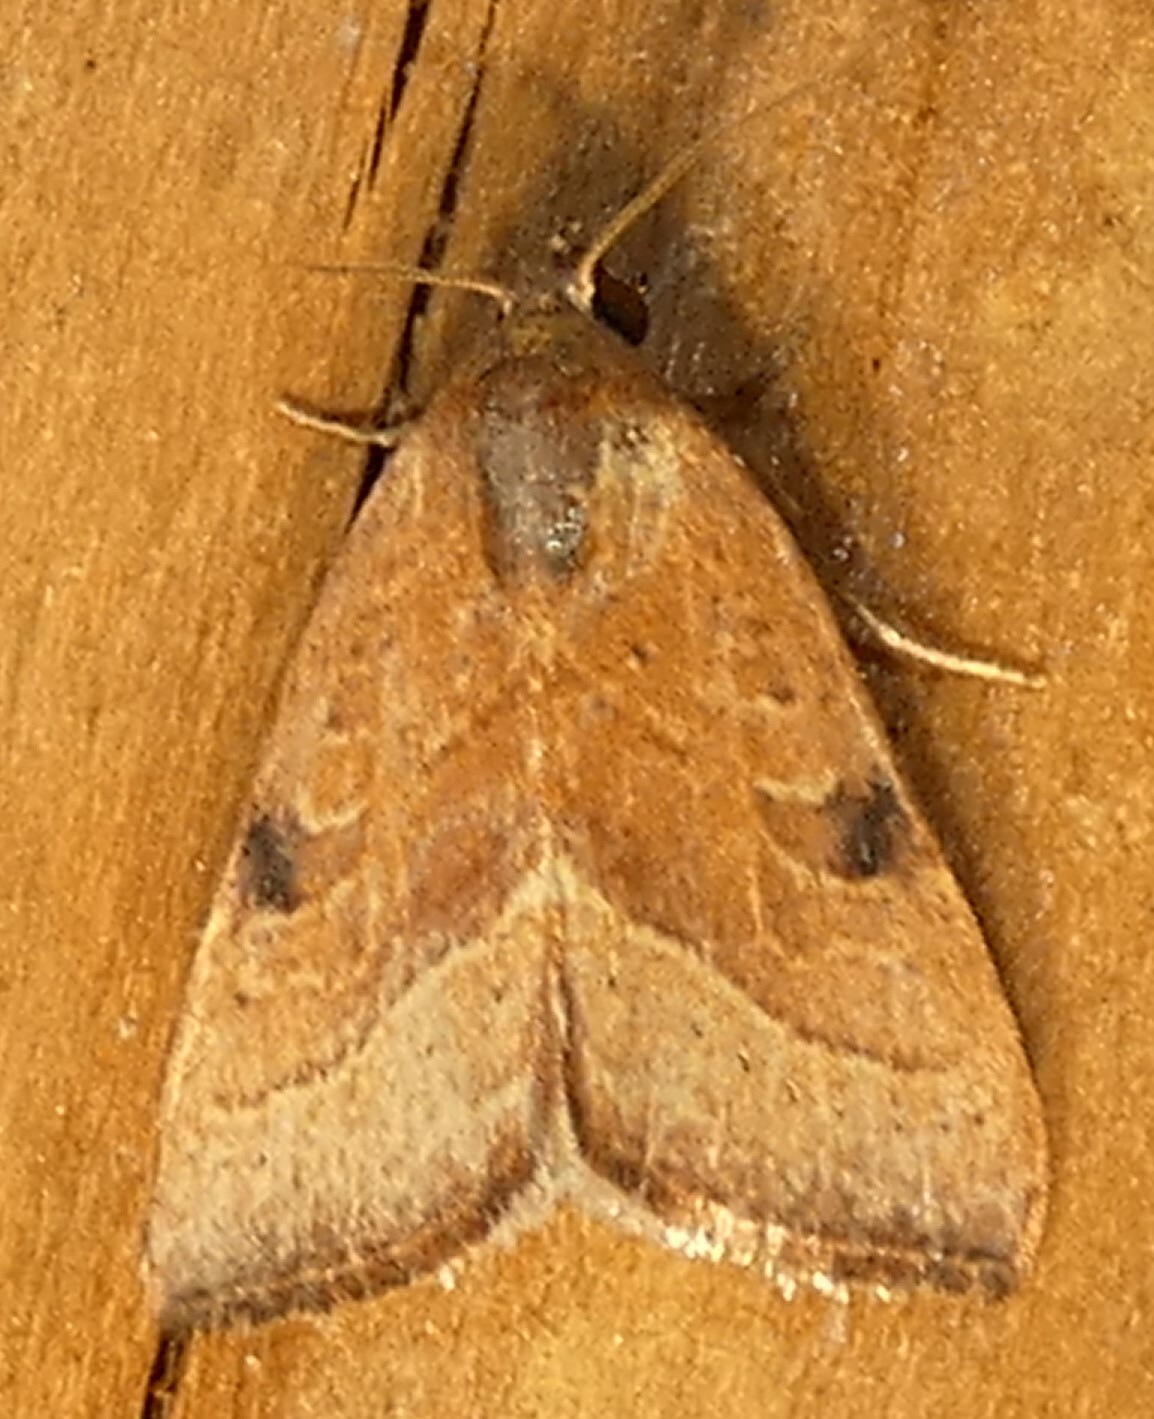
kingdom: Animalia
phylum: Arthropoda
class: Insecta
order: Lepidoptera
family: Noctuidae
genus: Galgula
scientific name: Galgula partita
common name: Wedgeling
